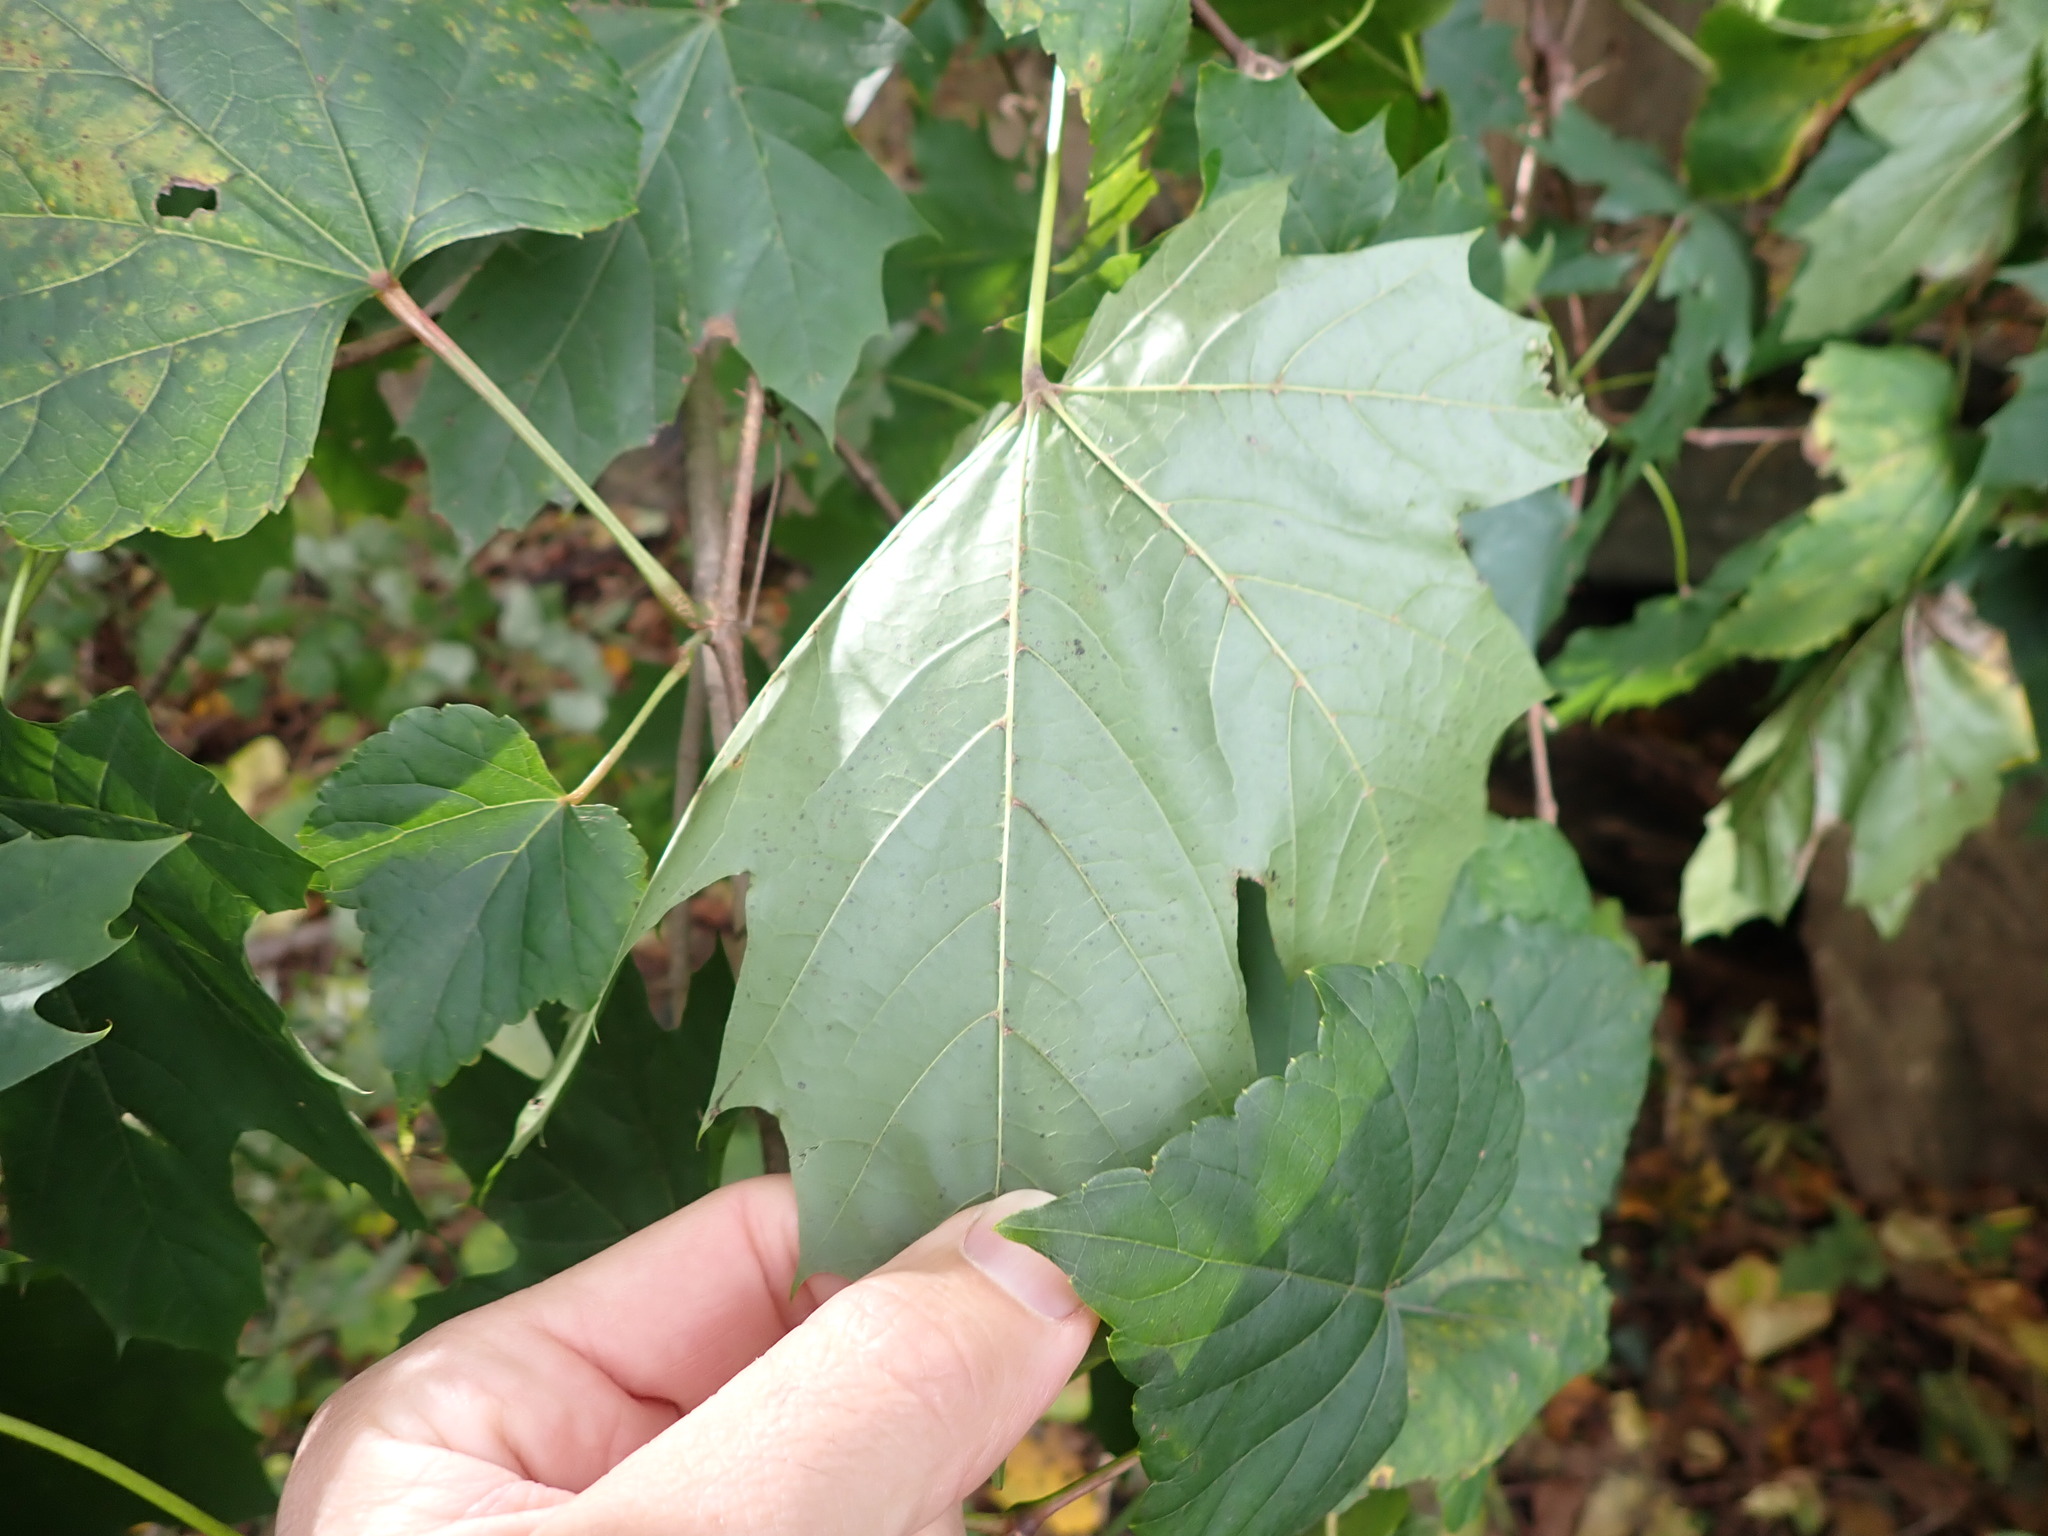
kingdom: Plantae
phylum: Tracheophyta
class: Magnoliopsida
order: Sapindales
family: Sapindaceae
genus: Acer
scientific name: Acer platanoides
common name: Norway maple
